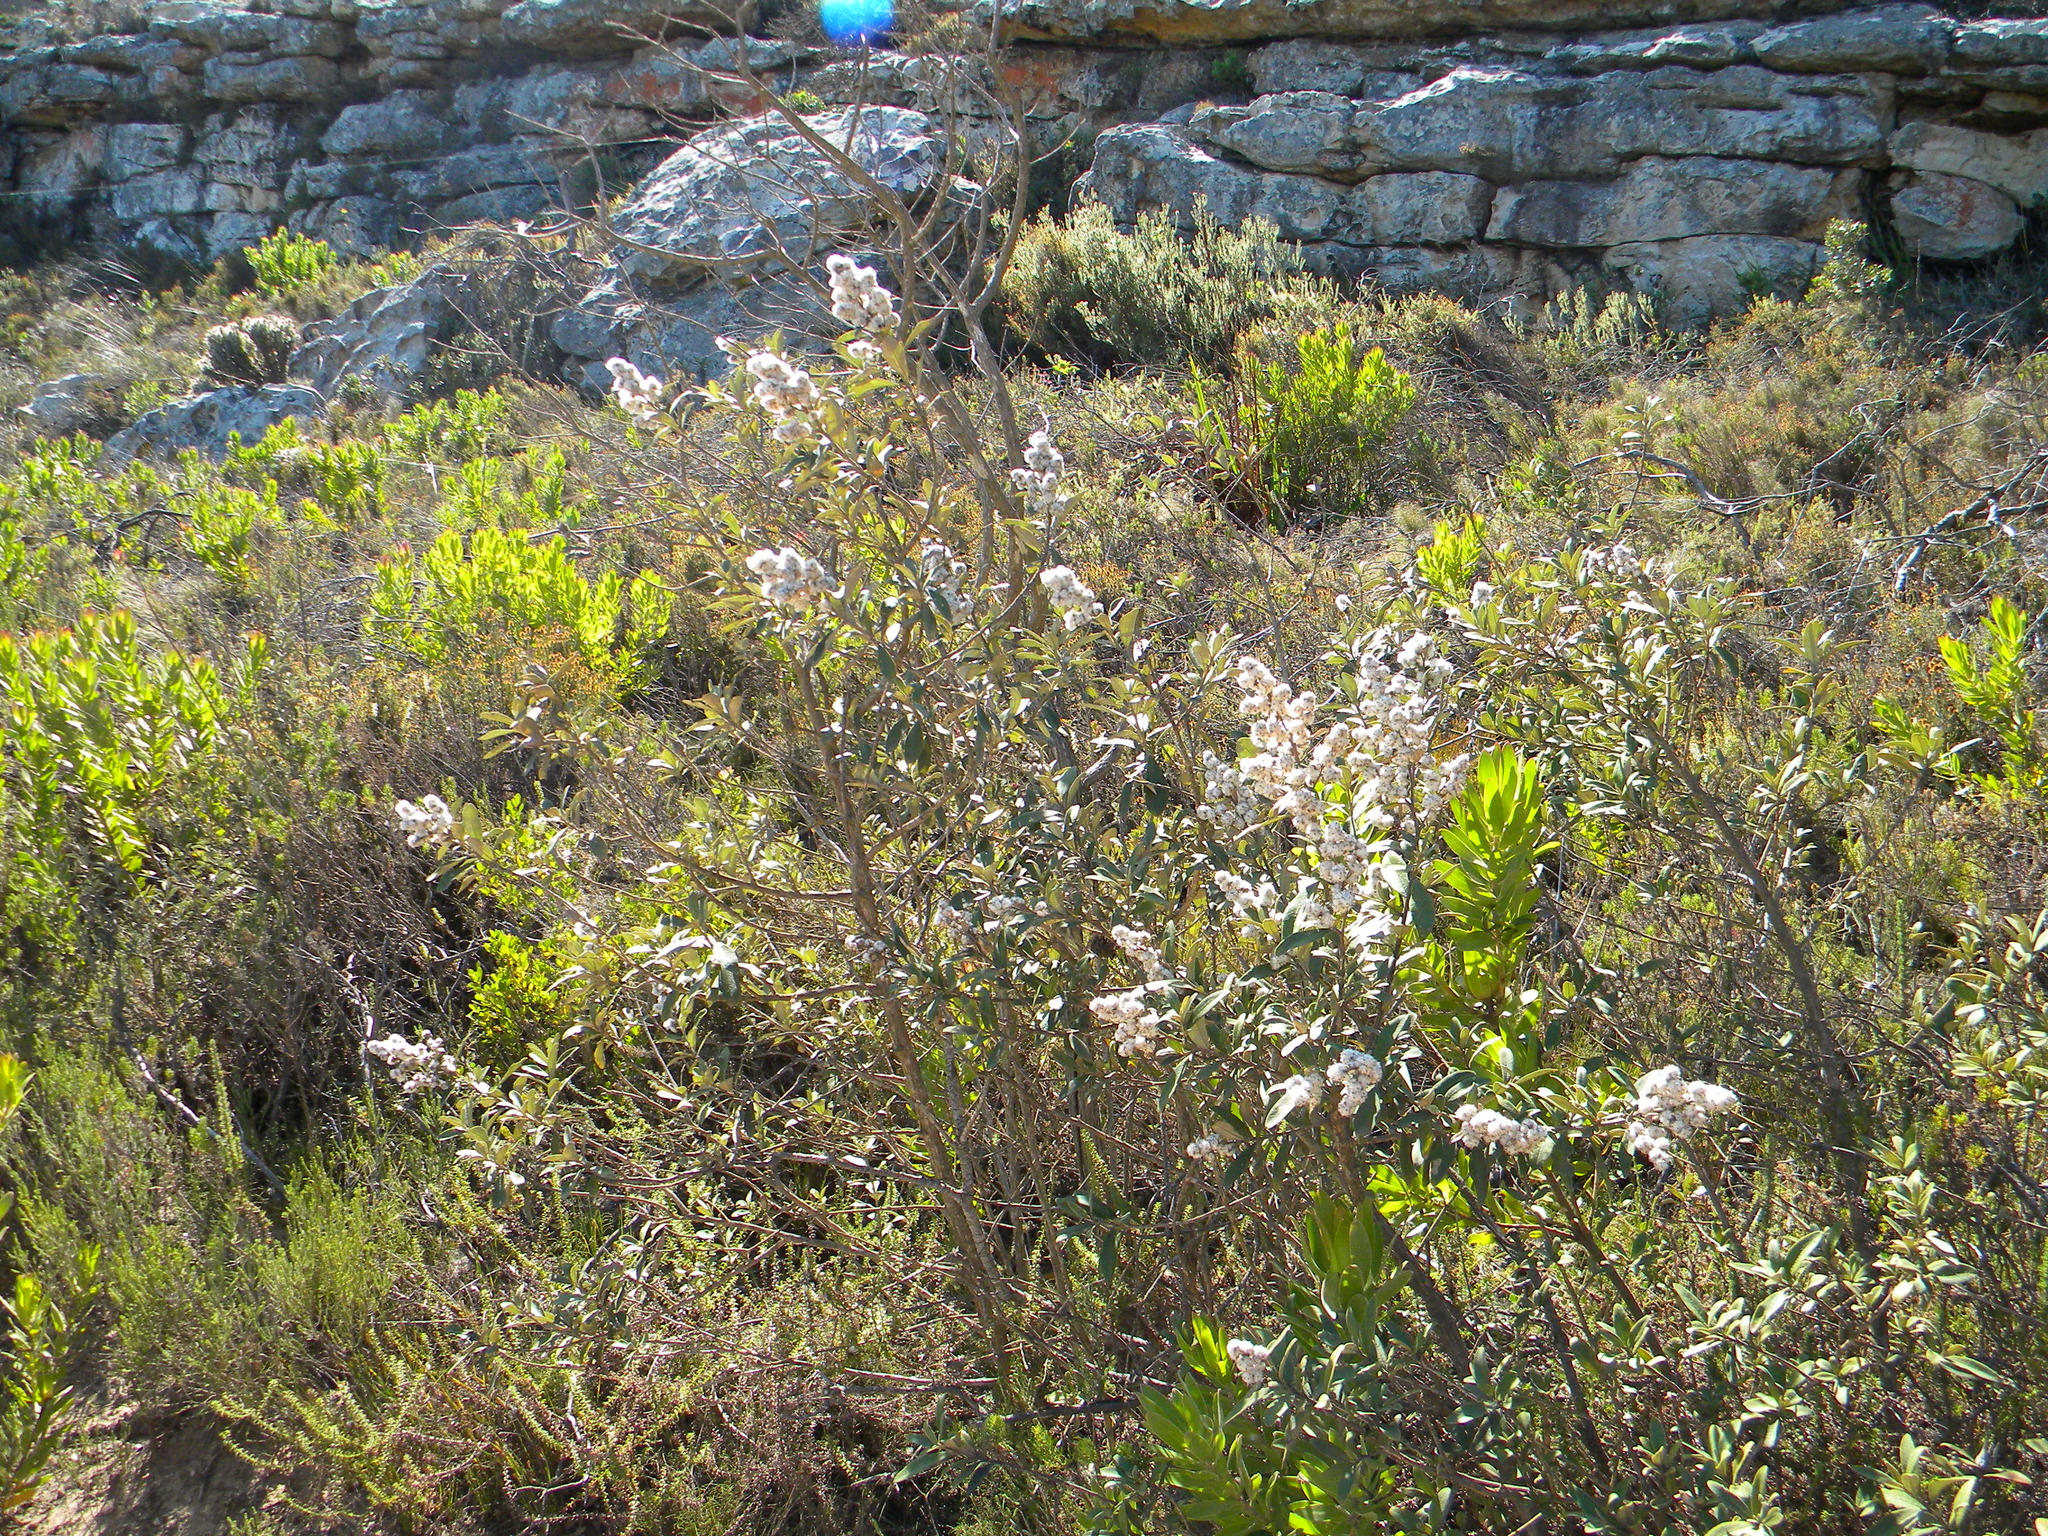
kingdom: Plantae
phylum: Tracheophyta
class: Magnoliopsida
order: Asterales
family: Asteraceae
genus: Tarchonanthus
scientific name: Tarchonanthus littoralis
